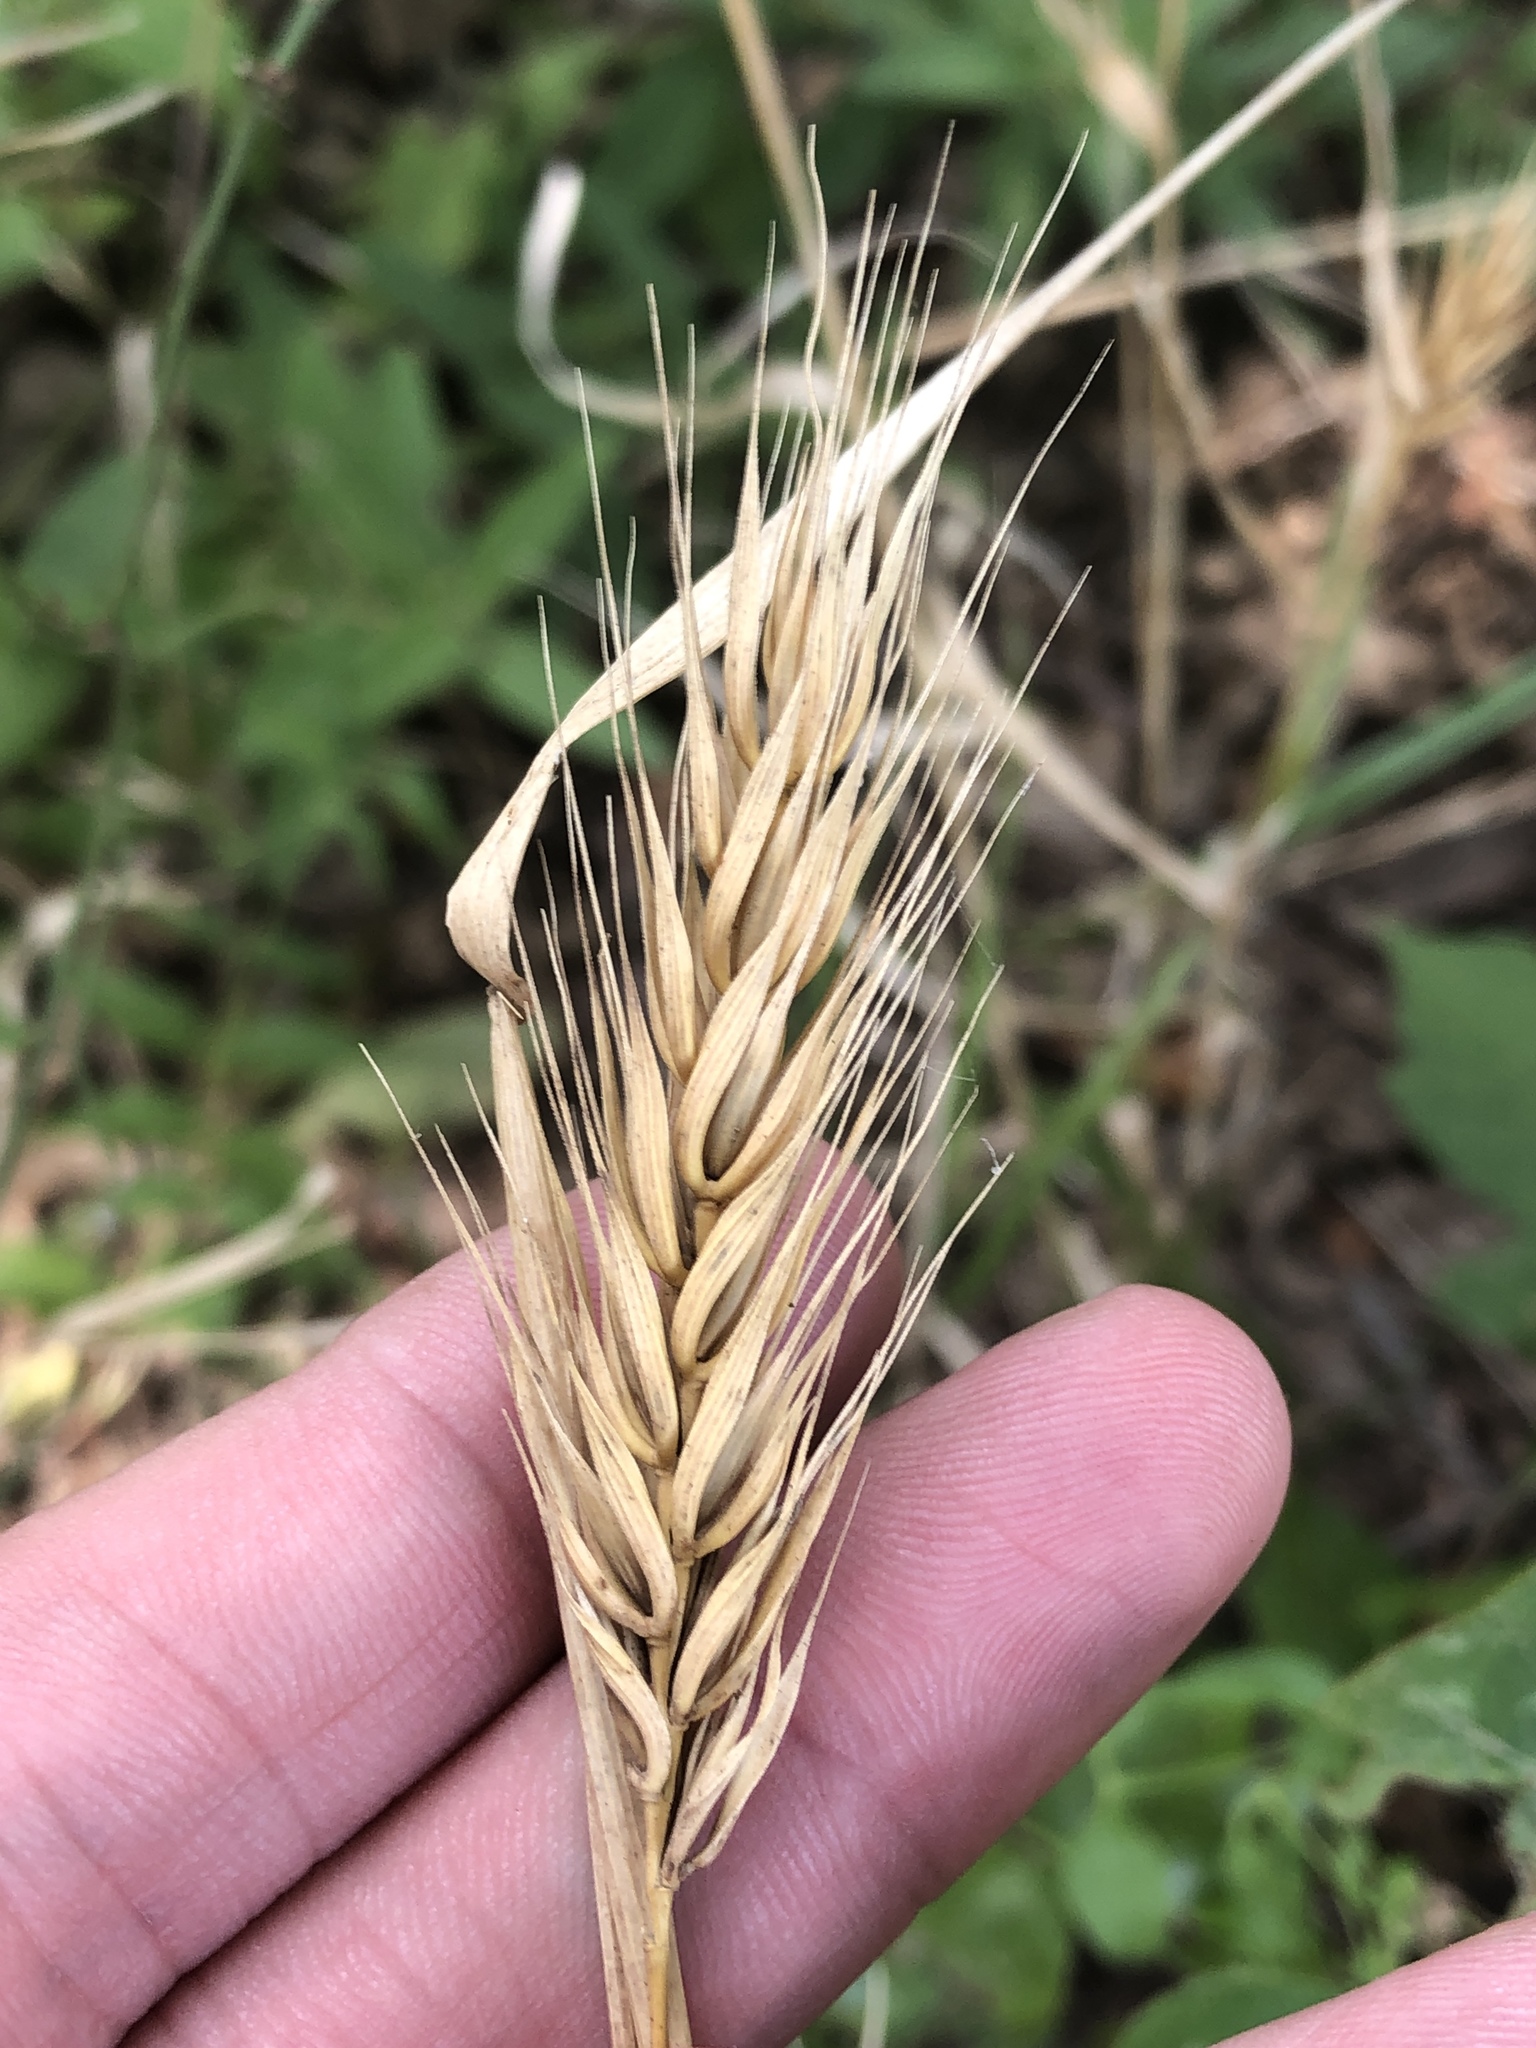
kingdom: Plantae
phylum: Tracheophyta
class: Liliopsida
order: Poales
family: Poaceae
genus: Elymus
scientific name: Elymus virginicus
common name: Common eastern wildrye
